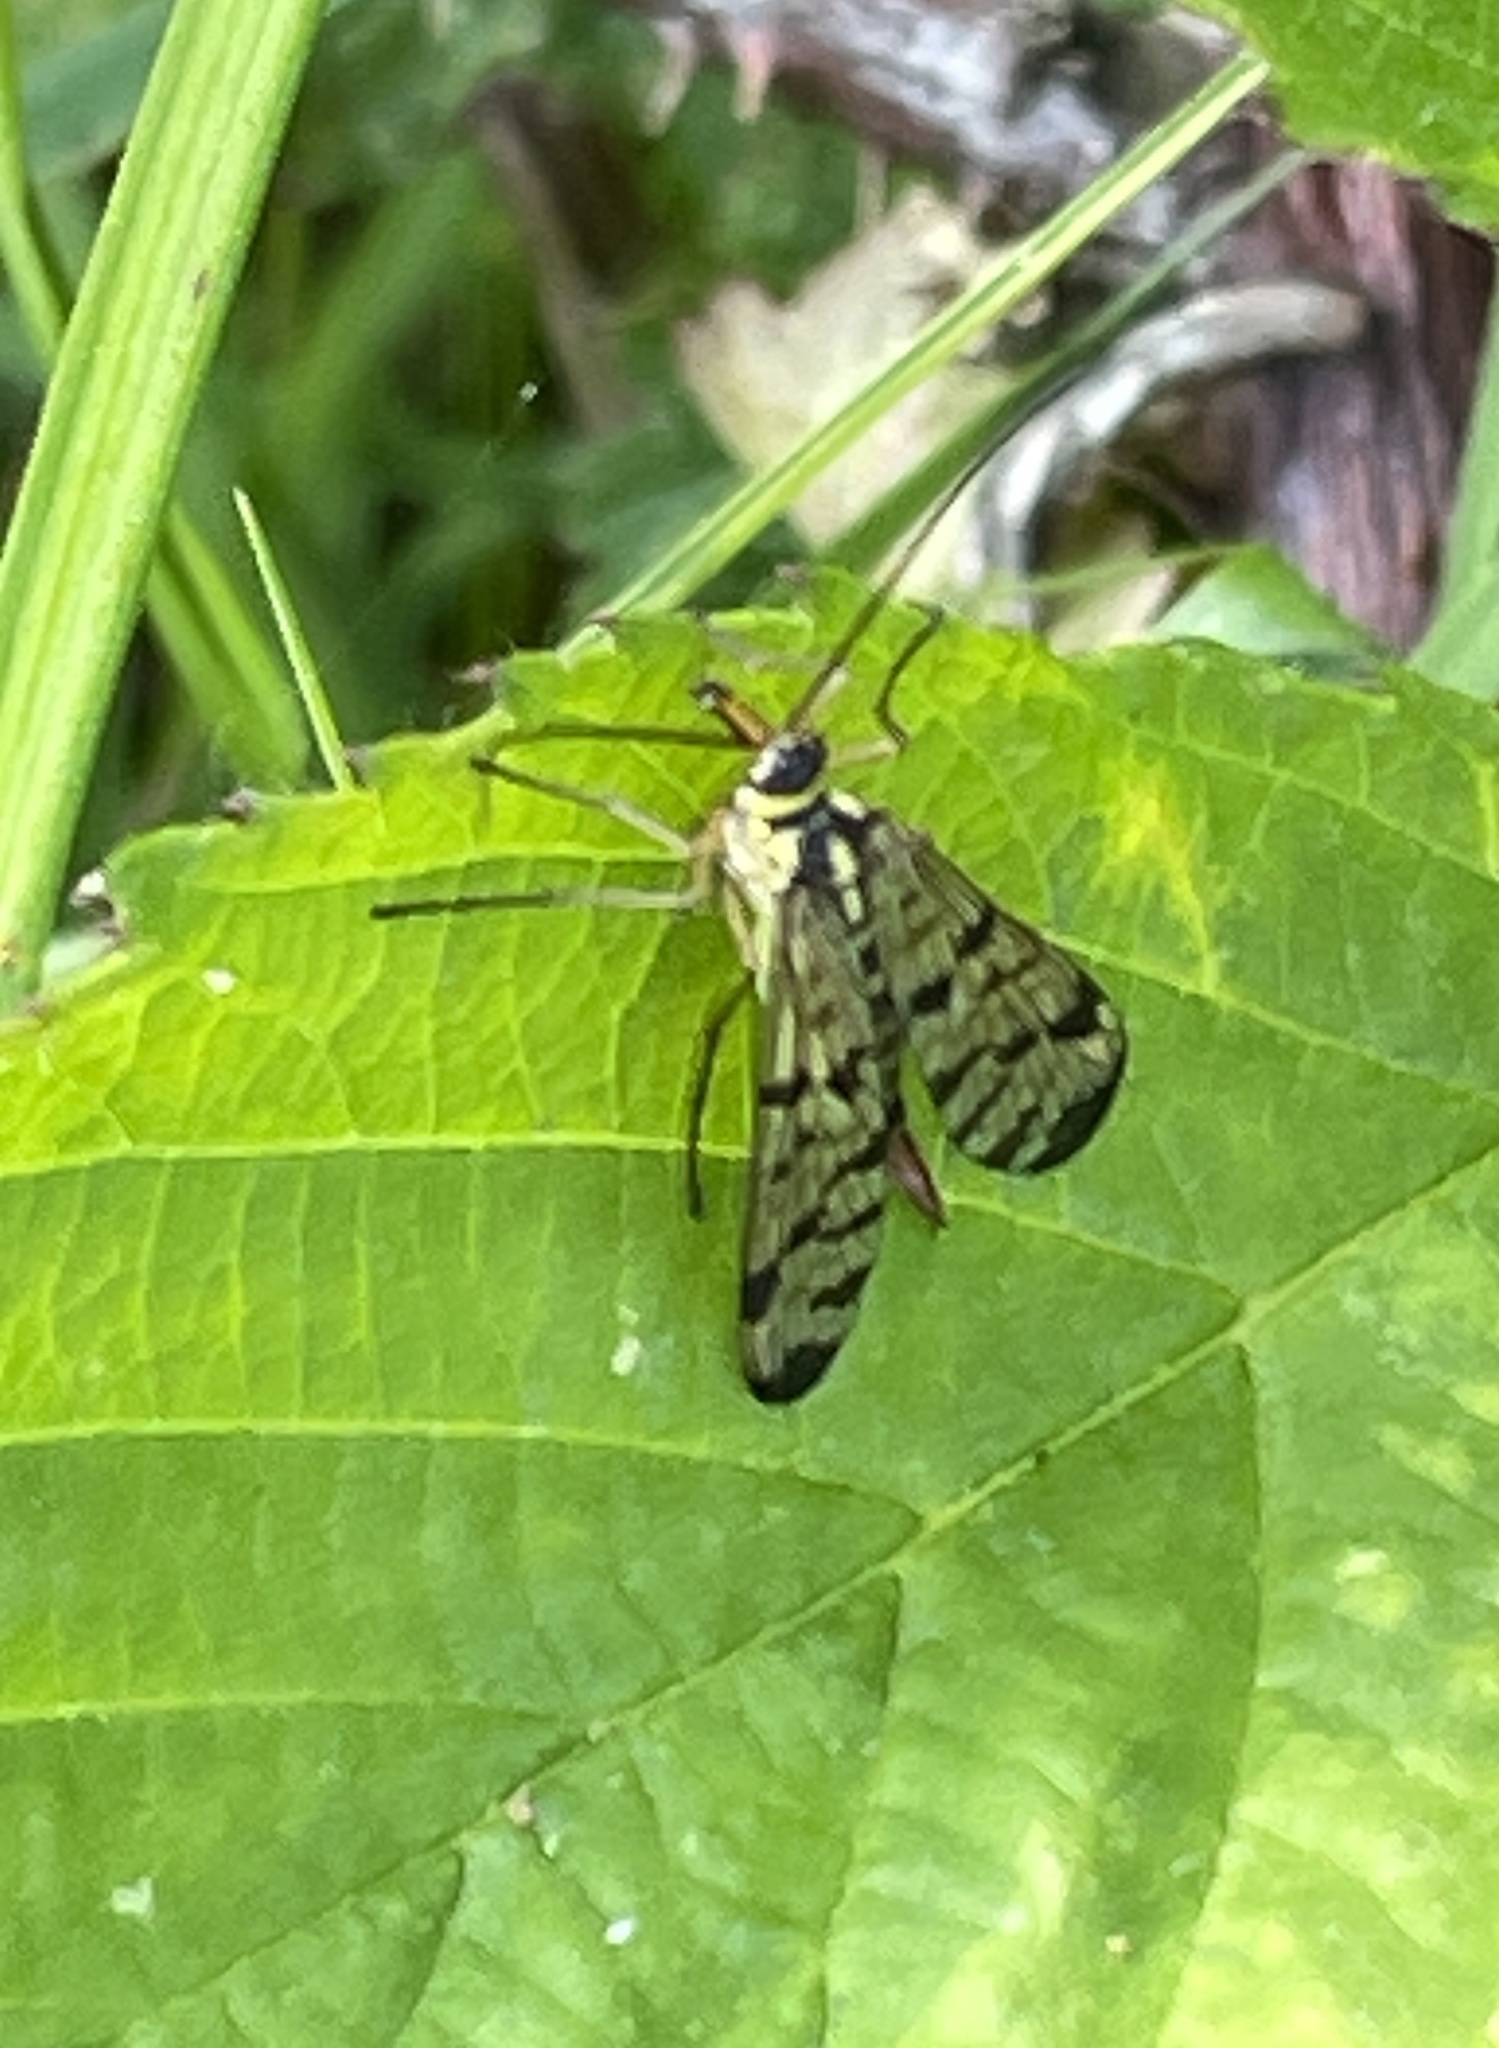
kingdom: Animalia
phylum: Arthropoda
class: Insecta
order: Mecoptera
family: Panorpidae
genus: Panorpa
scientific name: Panorpa germanica
